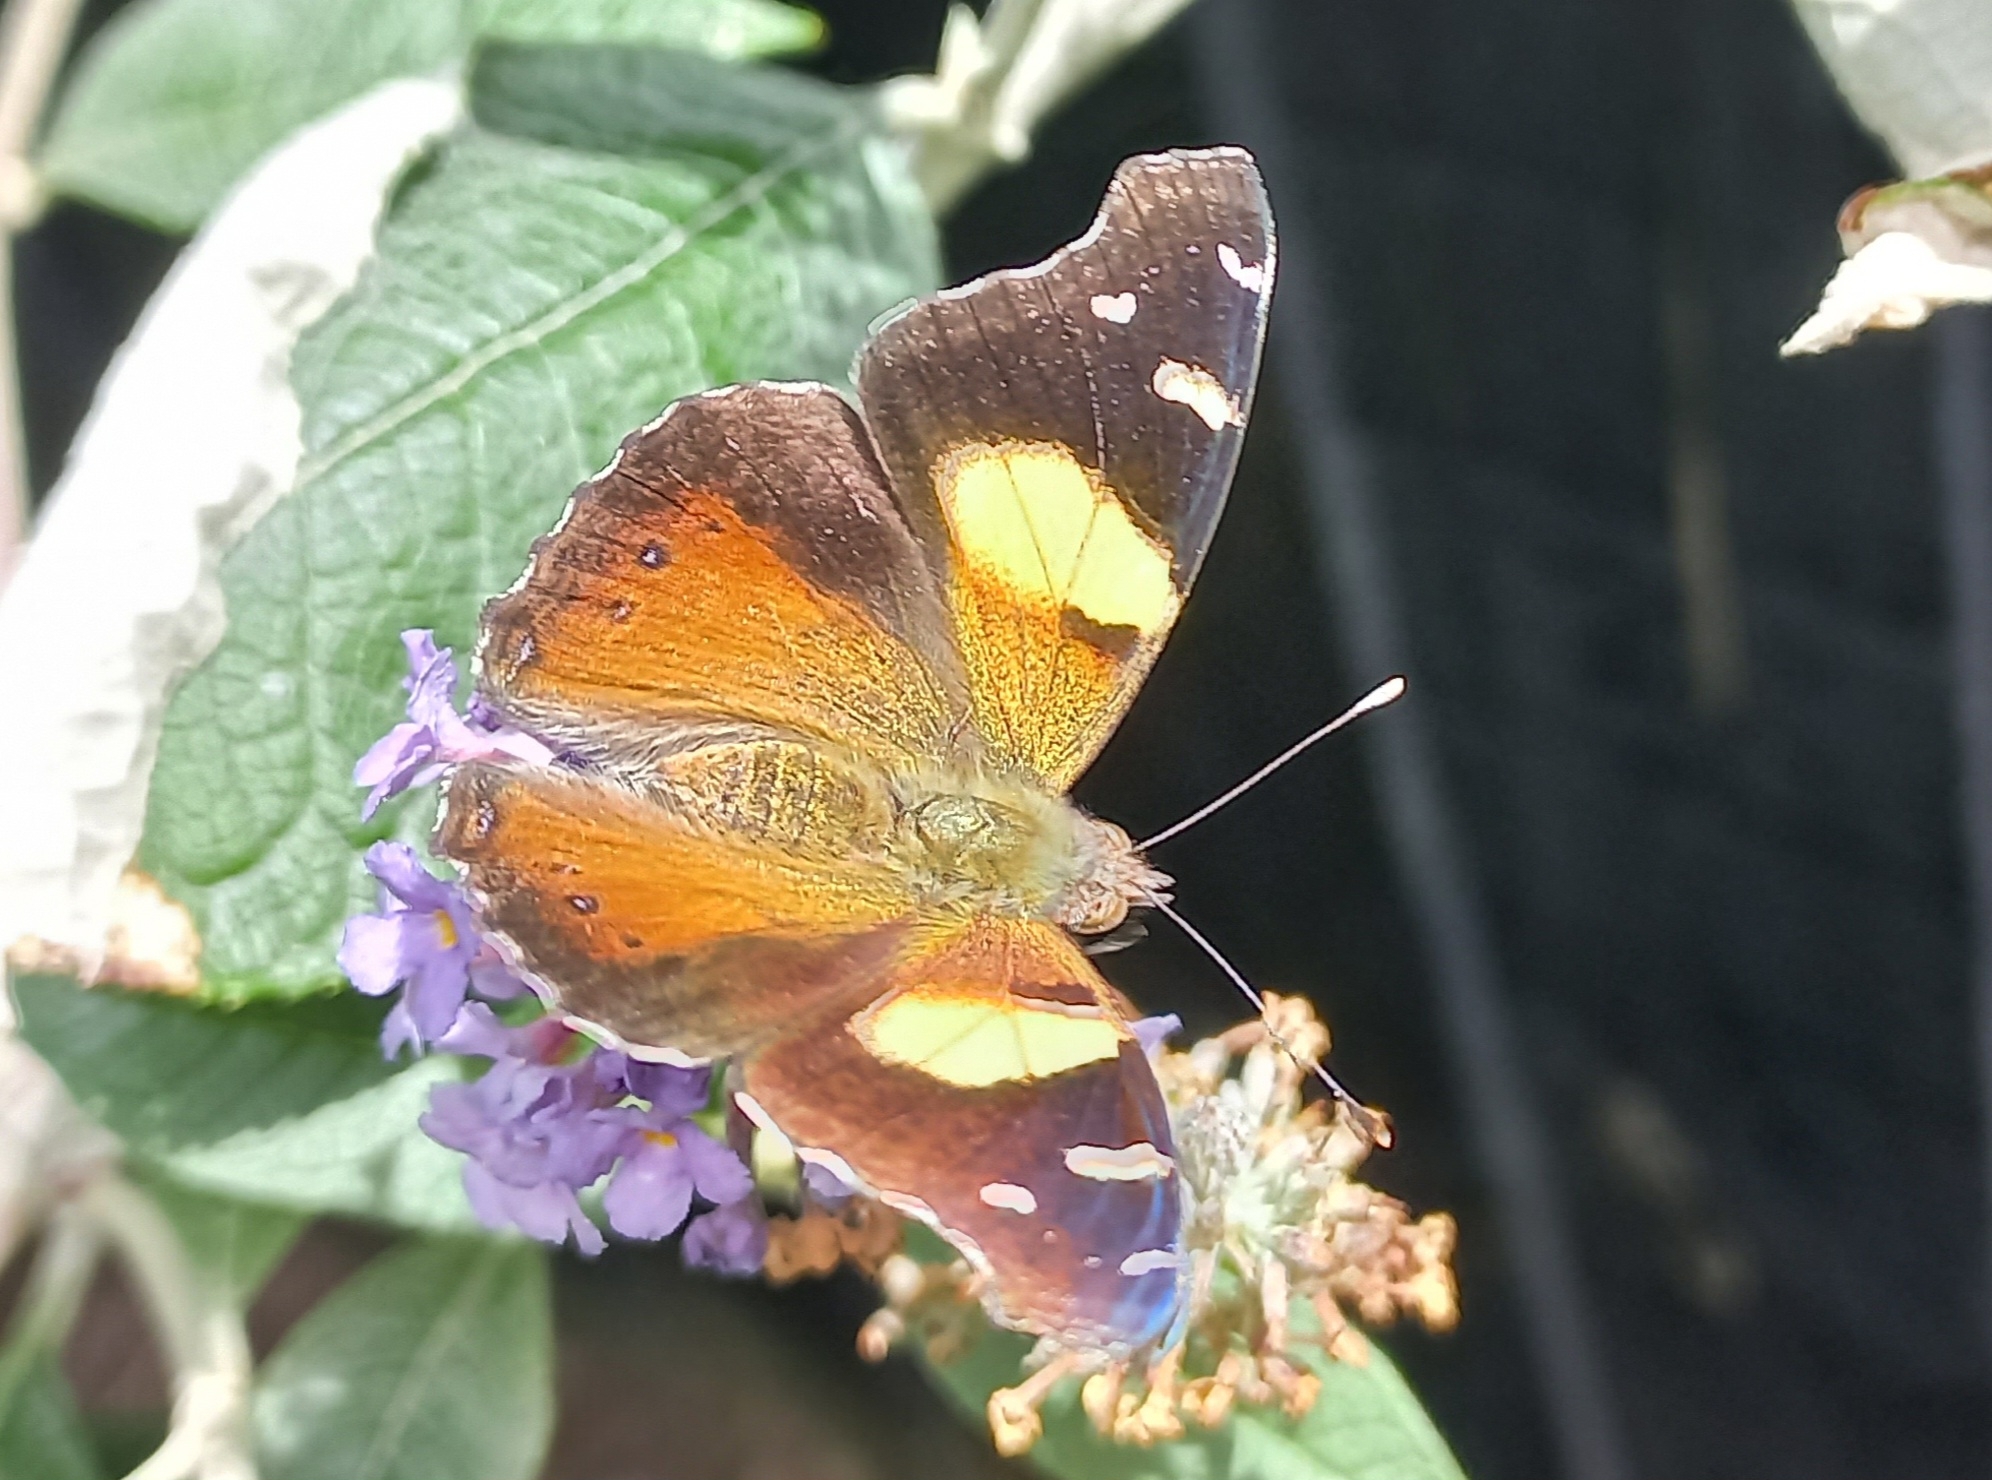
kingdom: Animalia
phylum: Arthropoda
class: Insecta
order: Lepidoptera
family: Nymphalidae
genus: Vanessa
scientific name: Vanessa itea
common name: Yellow admiral
